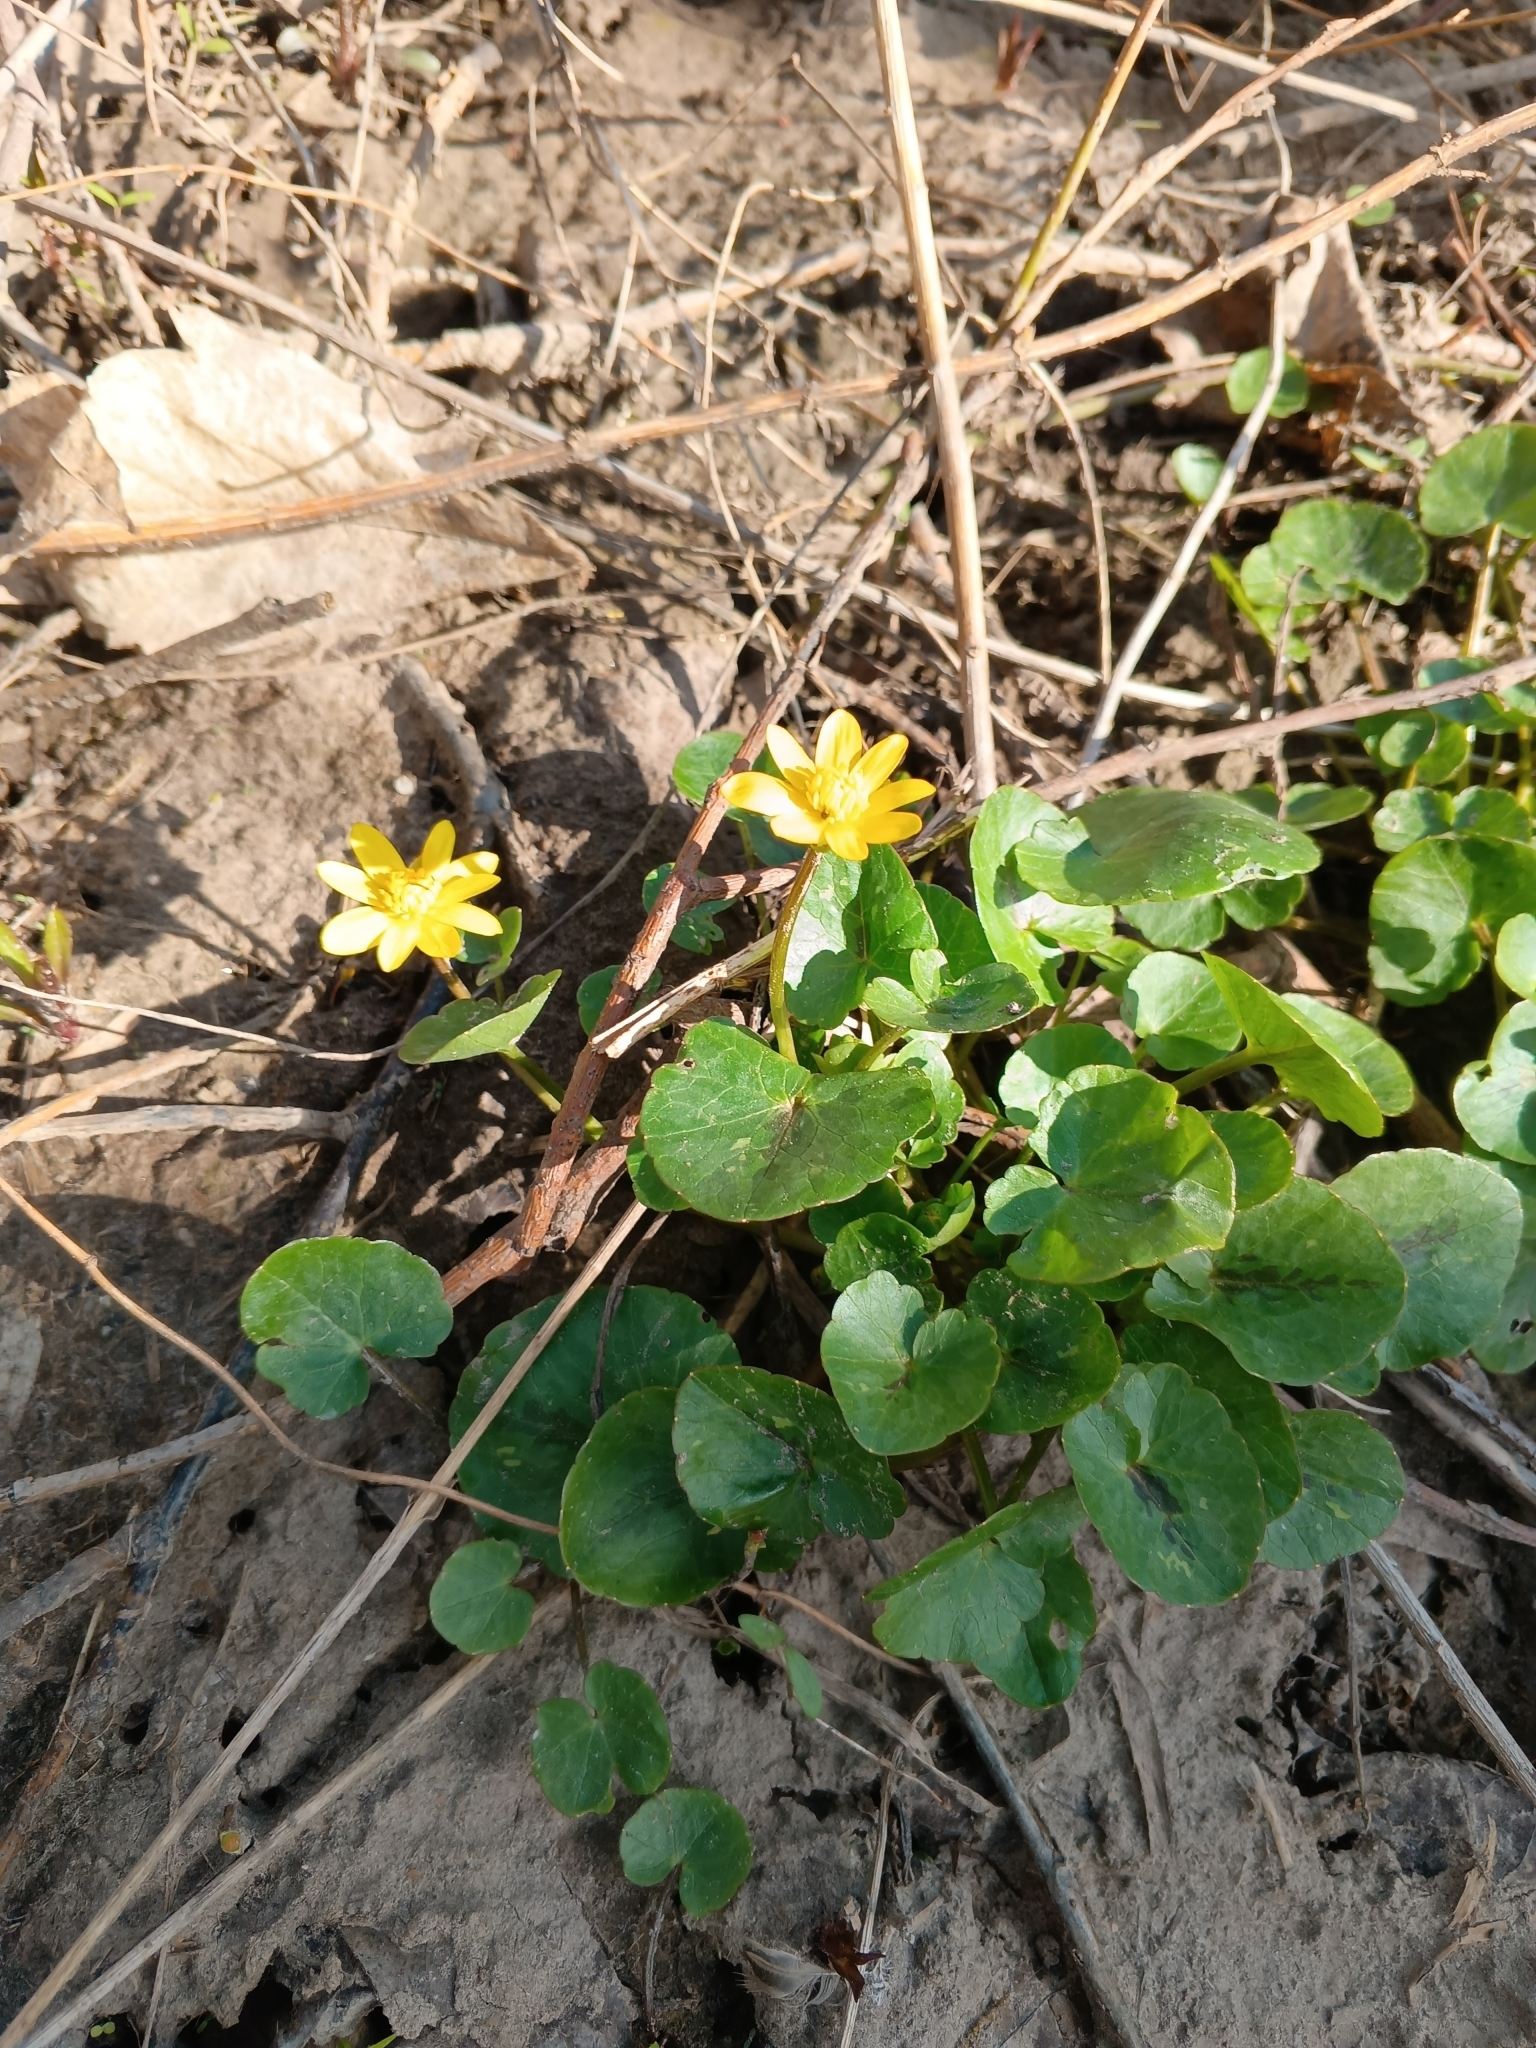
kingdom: Plantae
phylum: Tracheophyta
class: Magnoliopsida
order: Ranunculales
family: Ranunculaceae
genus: Ficaria
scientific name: Ficaria verna
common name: Lesser celandine
